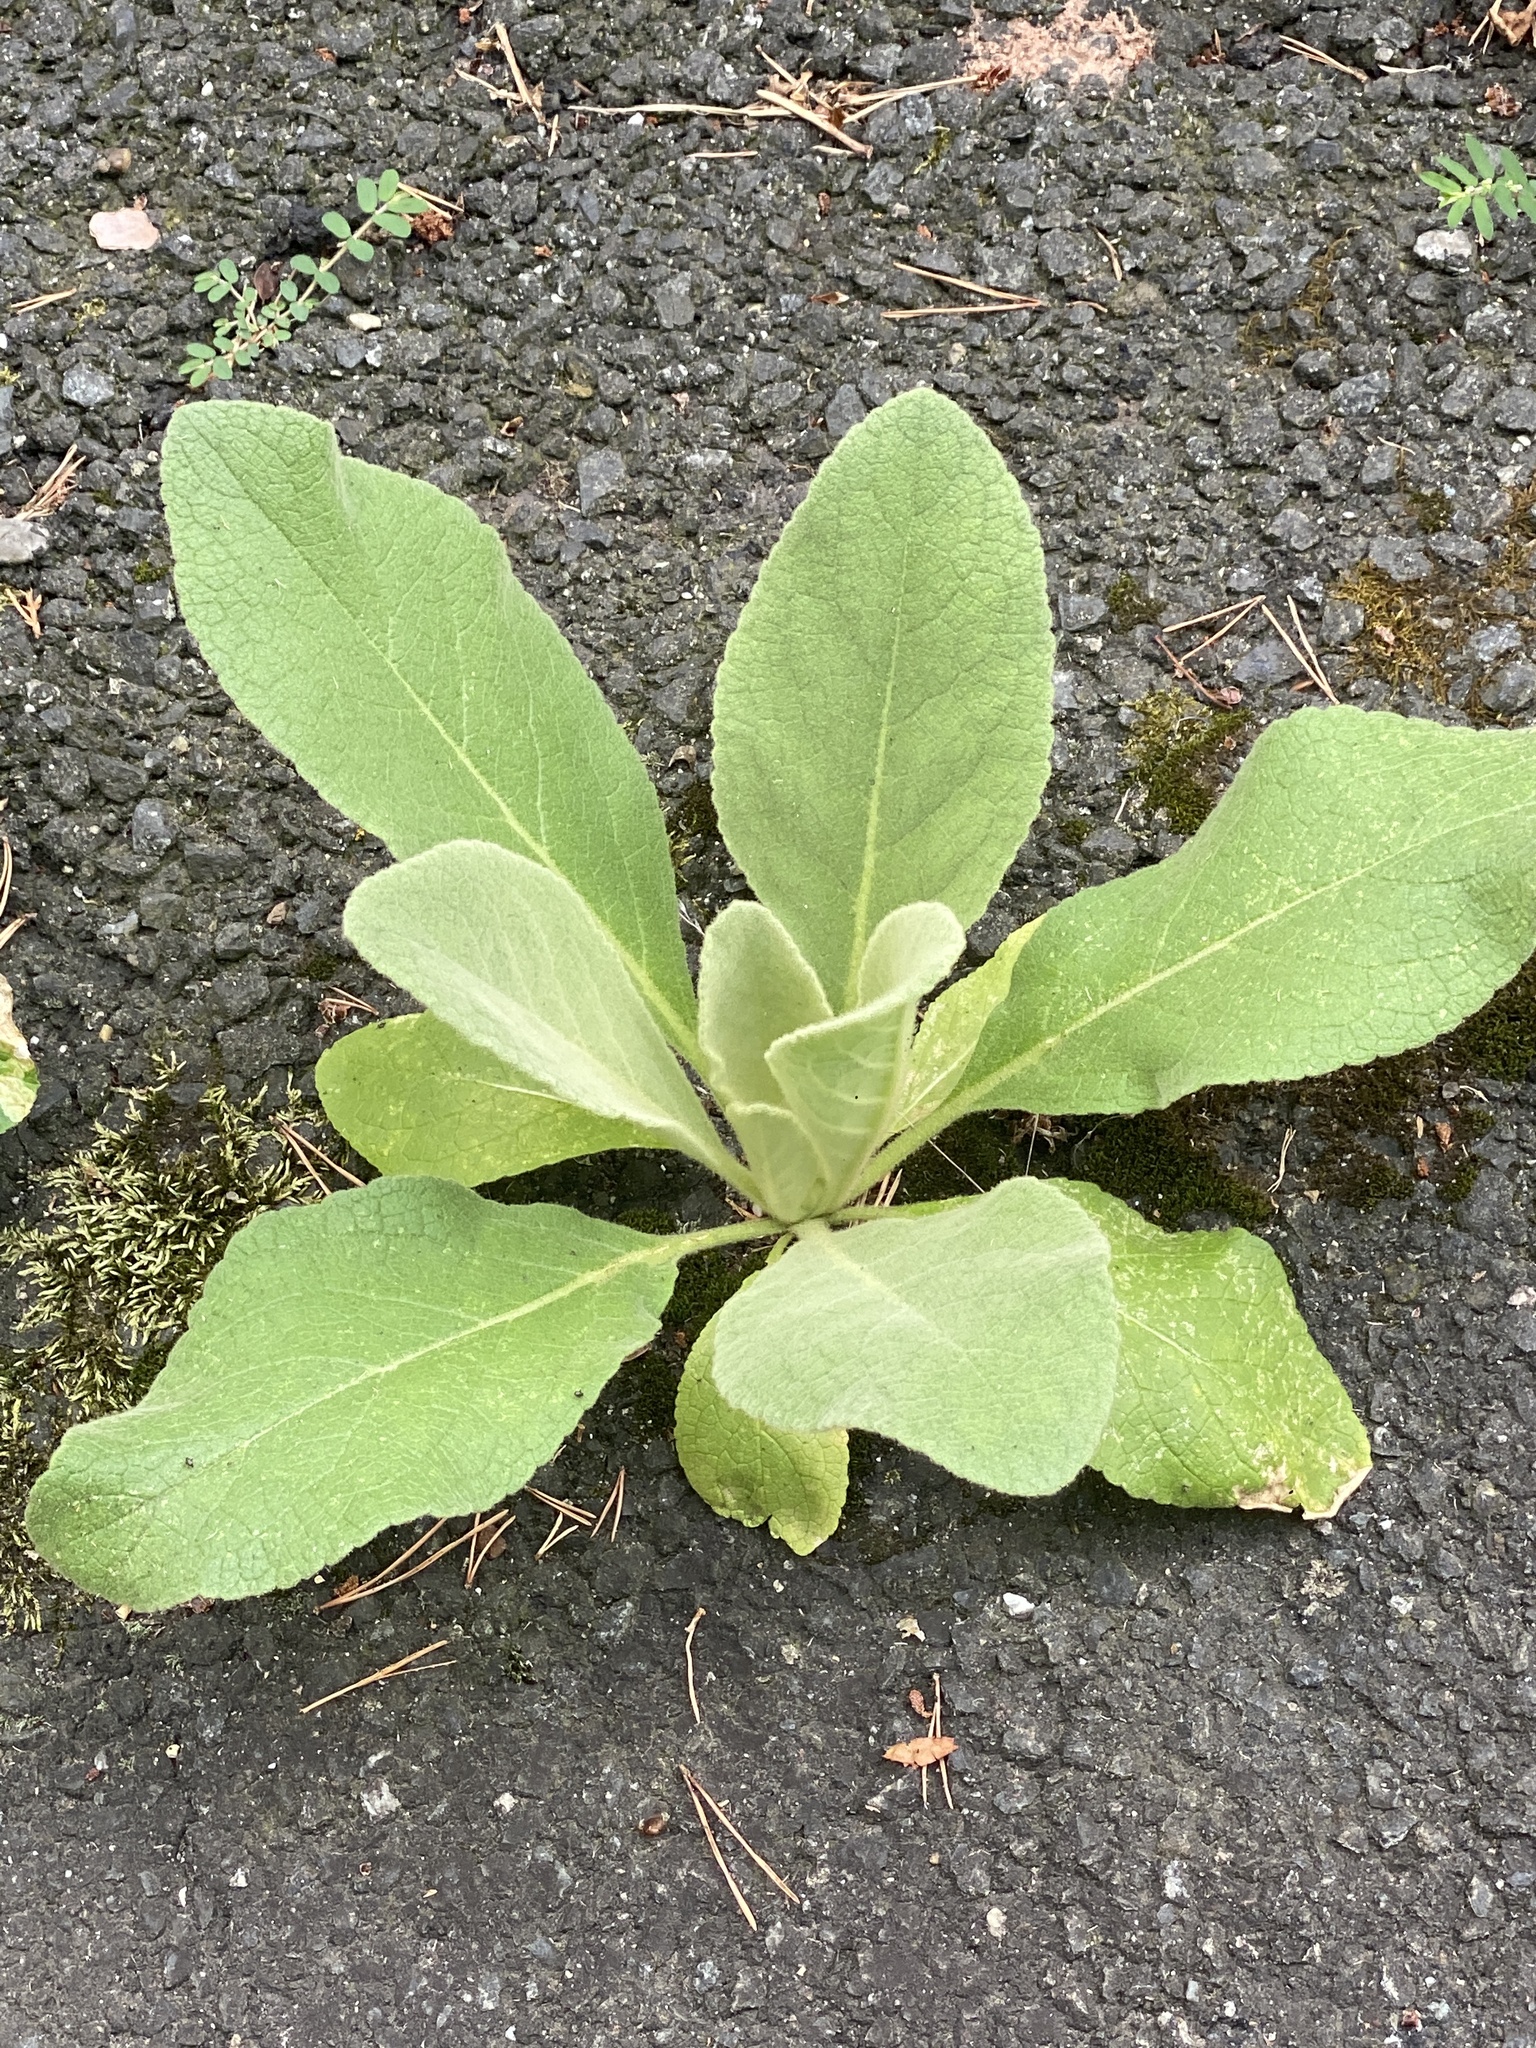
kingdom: Plantae
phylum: Tracheophyta
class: Magnoliopsida
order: Lamiales
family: Scrophulariaceae
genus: Verbascum
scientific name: Verbascum thapsus
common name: Common mullein
